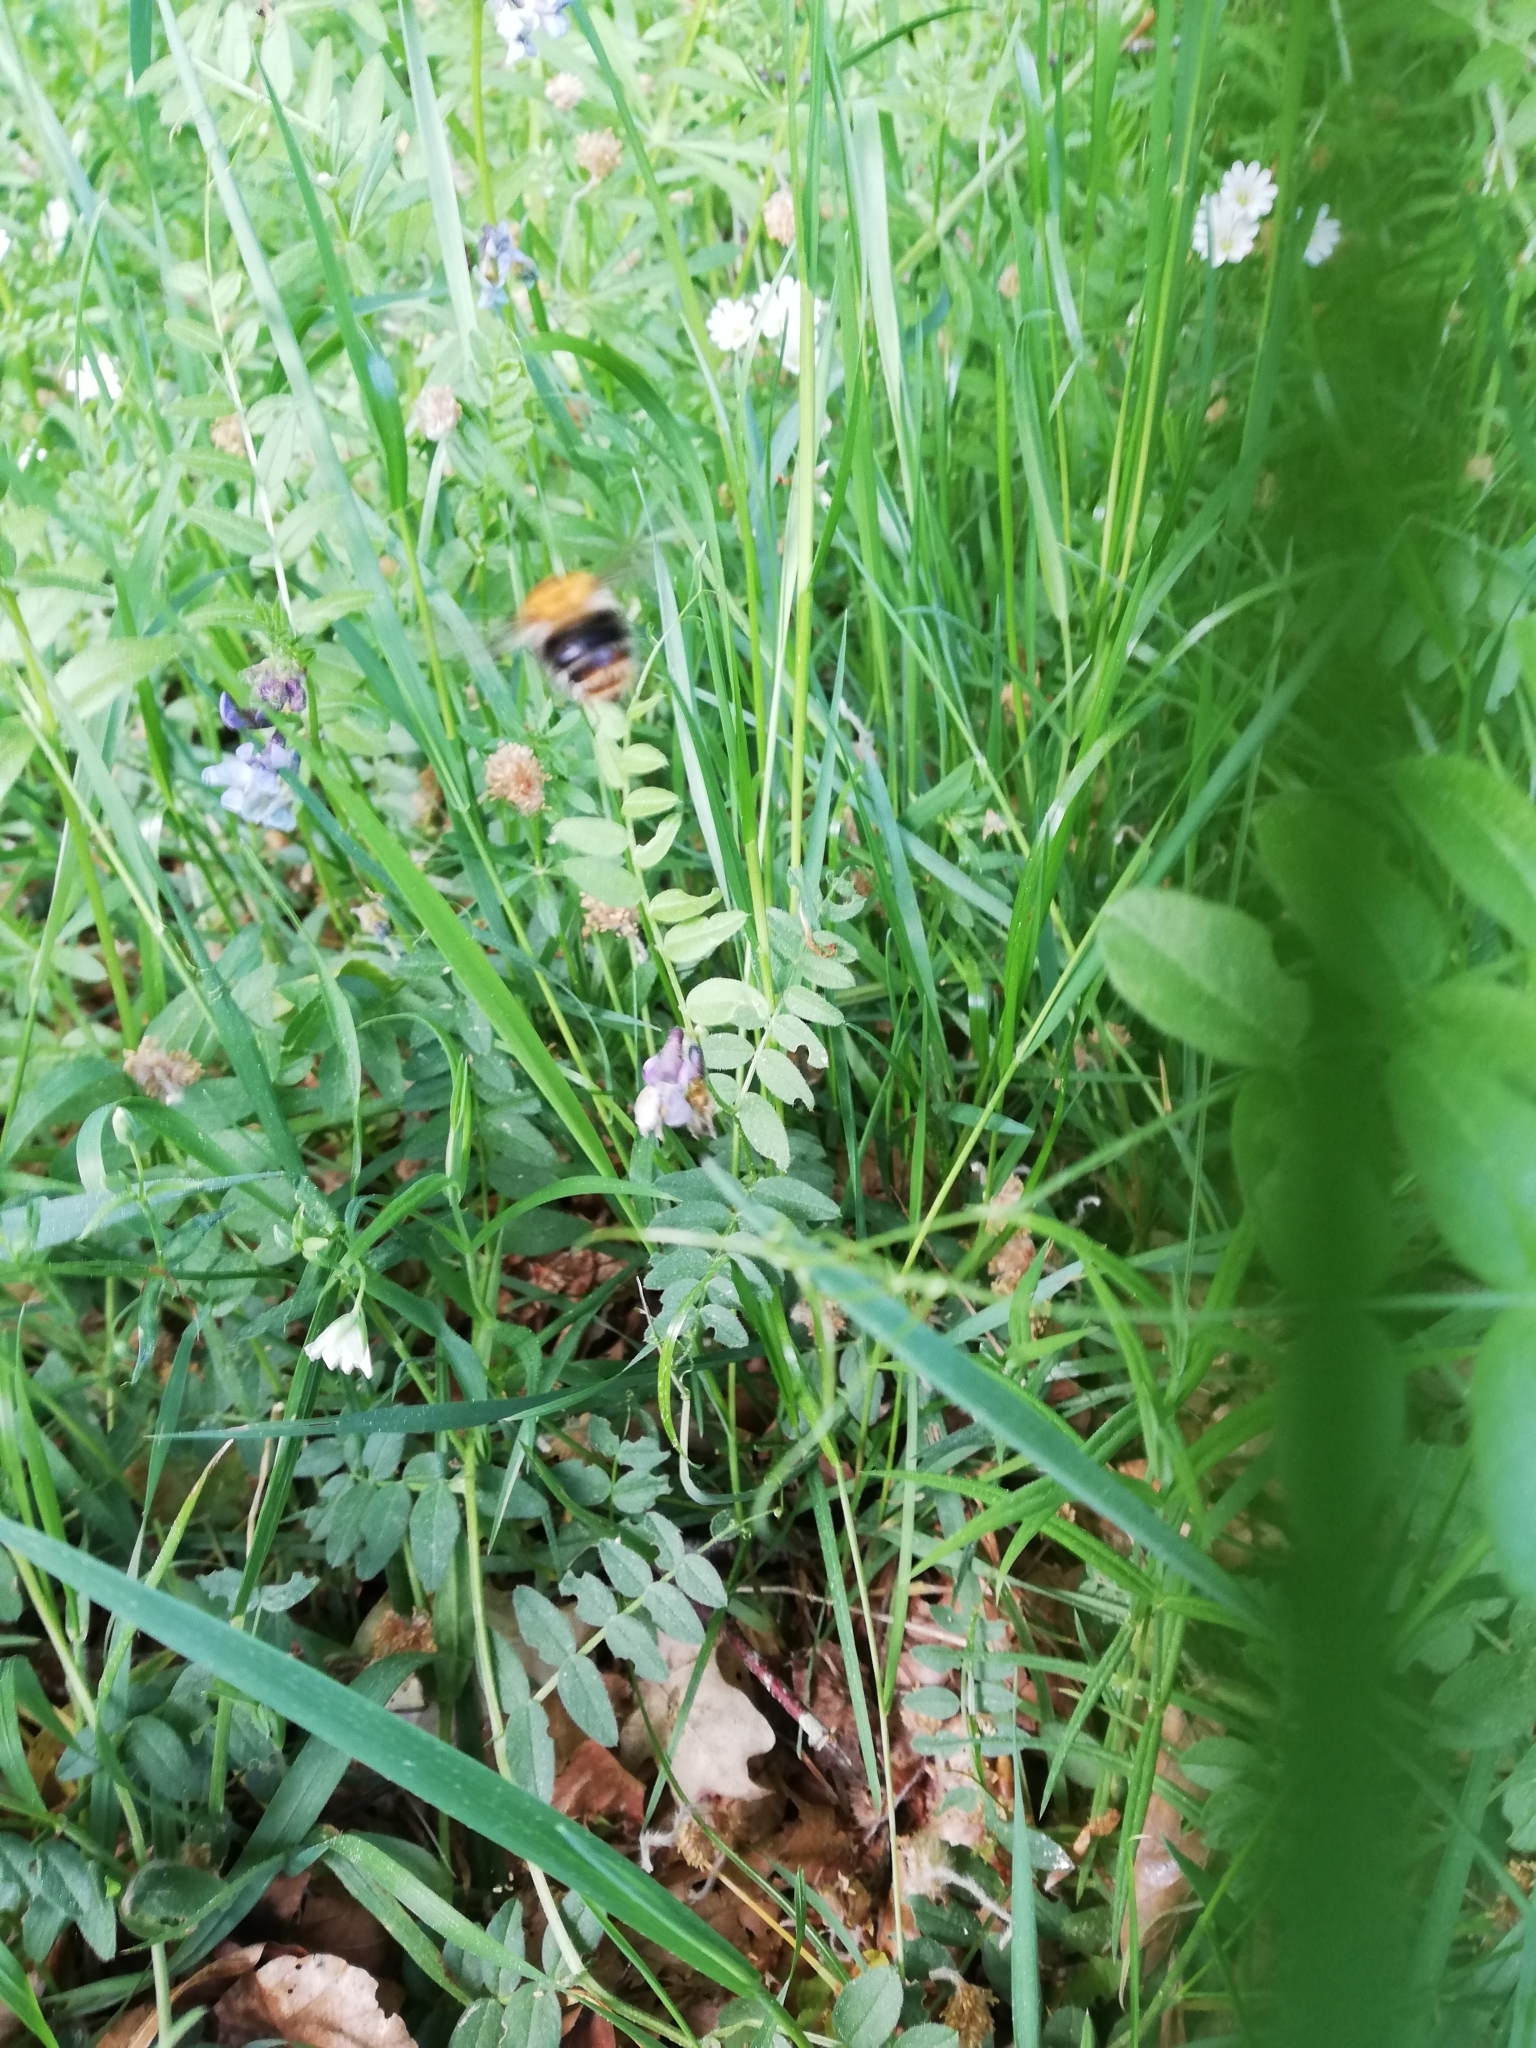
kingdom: Animalia
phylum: Arthropoda
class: Insecta
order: Hymenoptera
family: Apidae
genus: Bombus
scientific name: Bombus pascuorum
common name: Common carder bee
